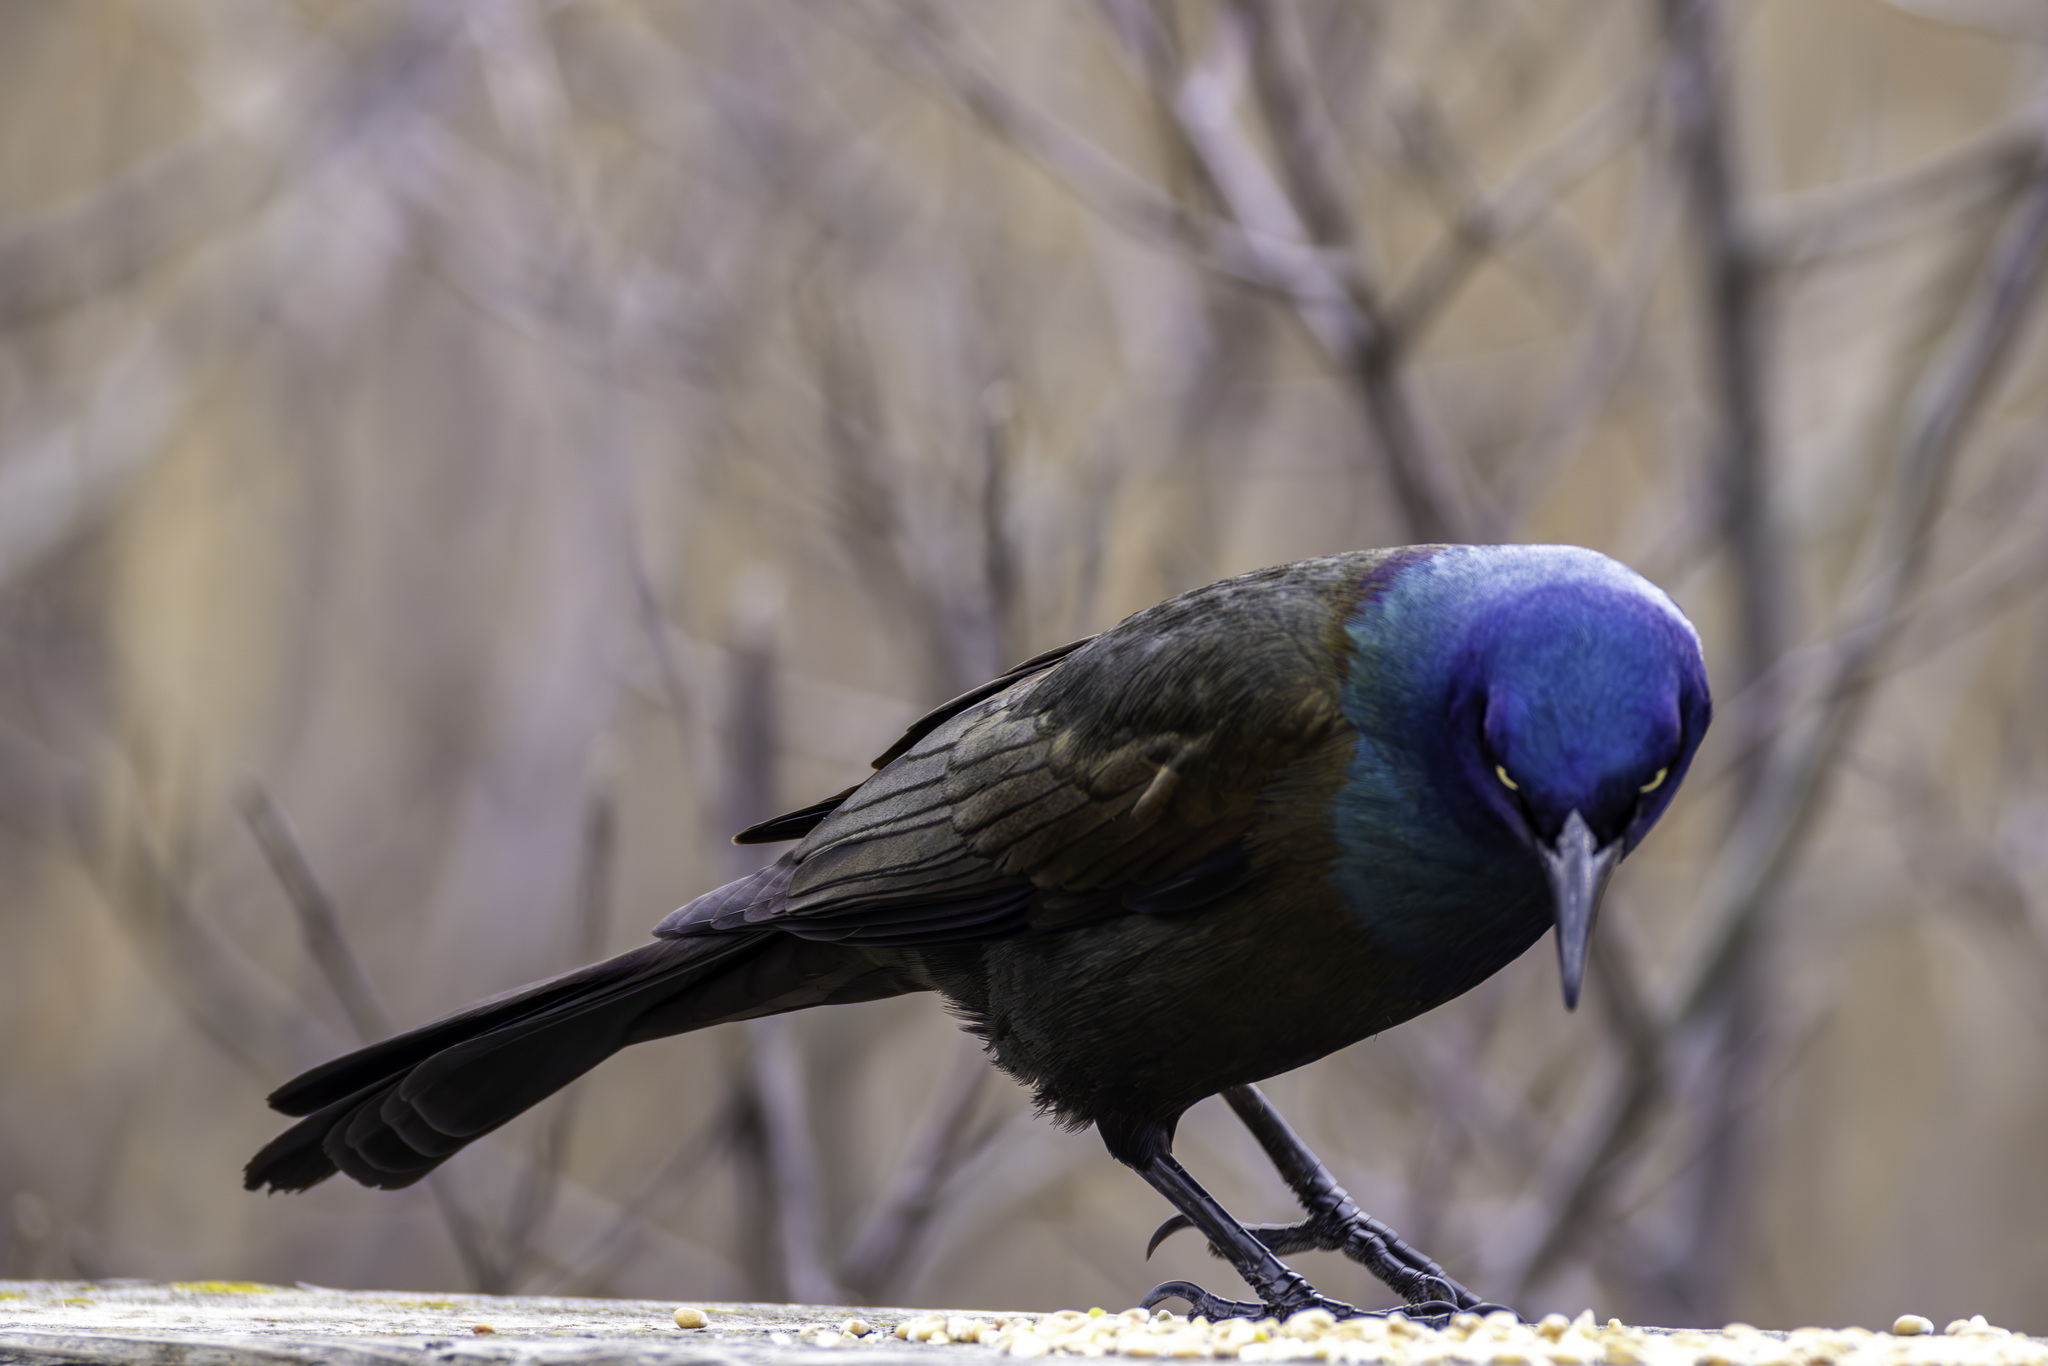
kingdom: Animalia
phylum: Chordata
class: Aves
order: Passeriformes
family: Icteridae
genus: Quiscalus
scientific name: Quiscalus quiscula
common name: Common grackle
